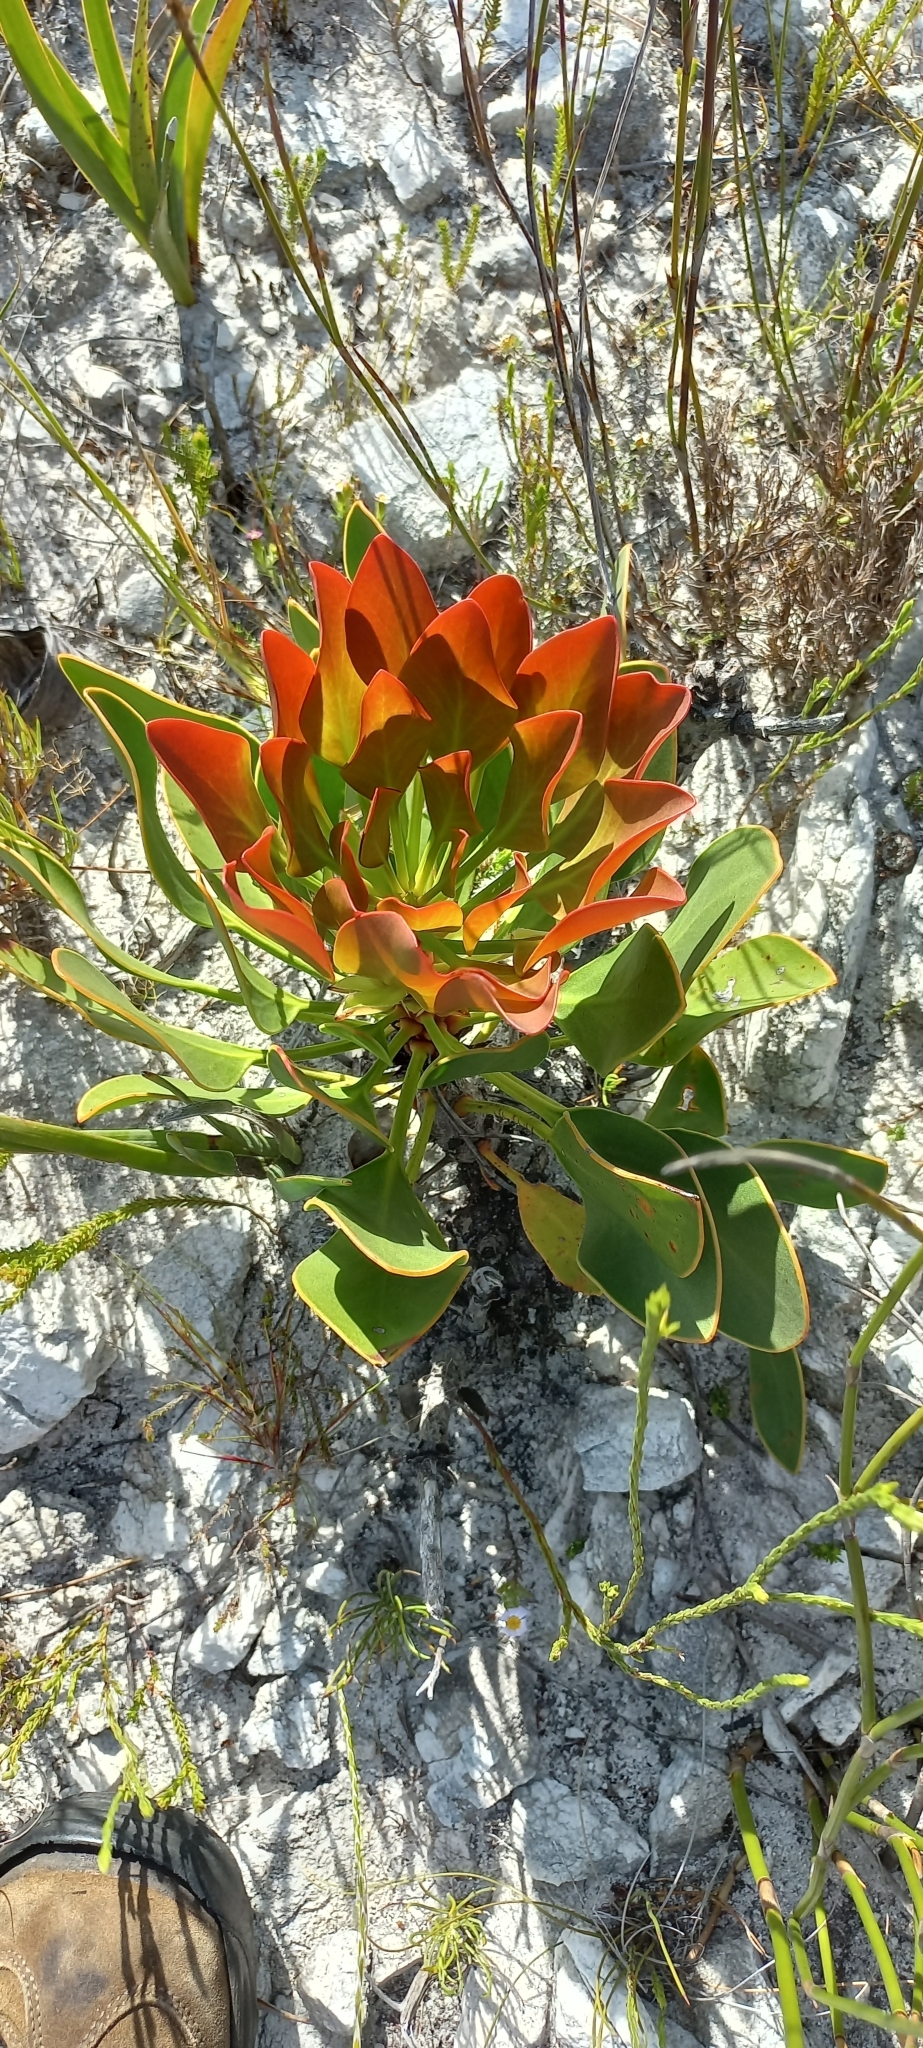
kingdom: Plantae
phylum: Tracheophyta
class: Magnoliopsida
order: Proteales
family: Proteaceae
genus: Protea
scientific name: Protea cynaroides
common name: King protea
